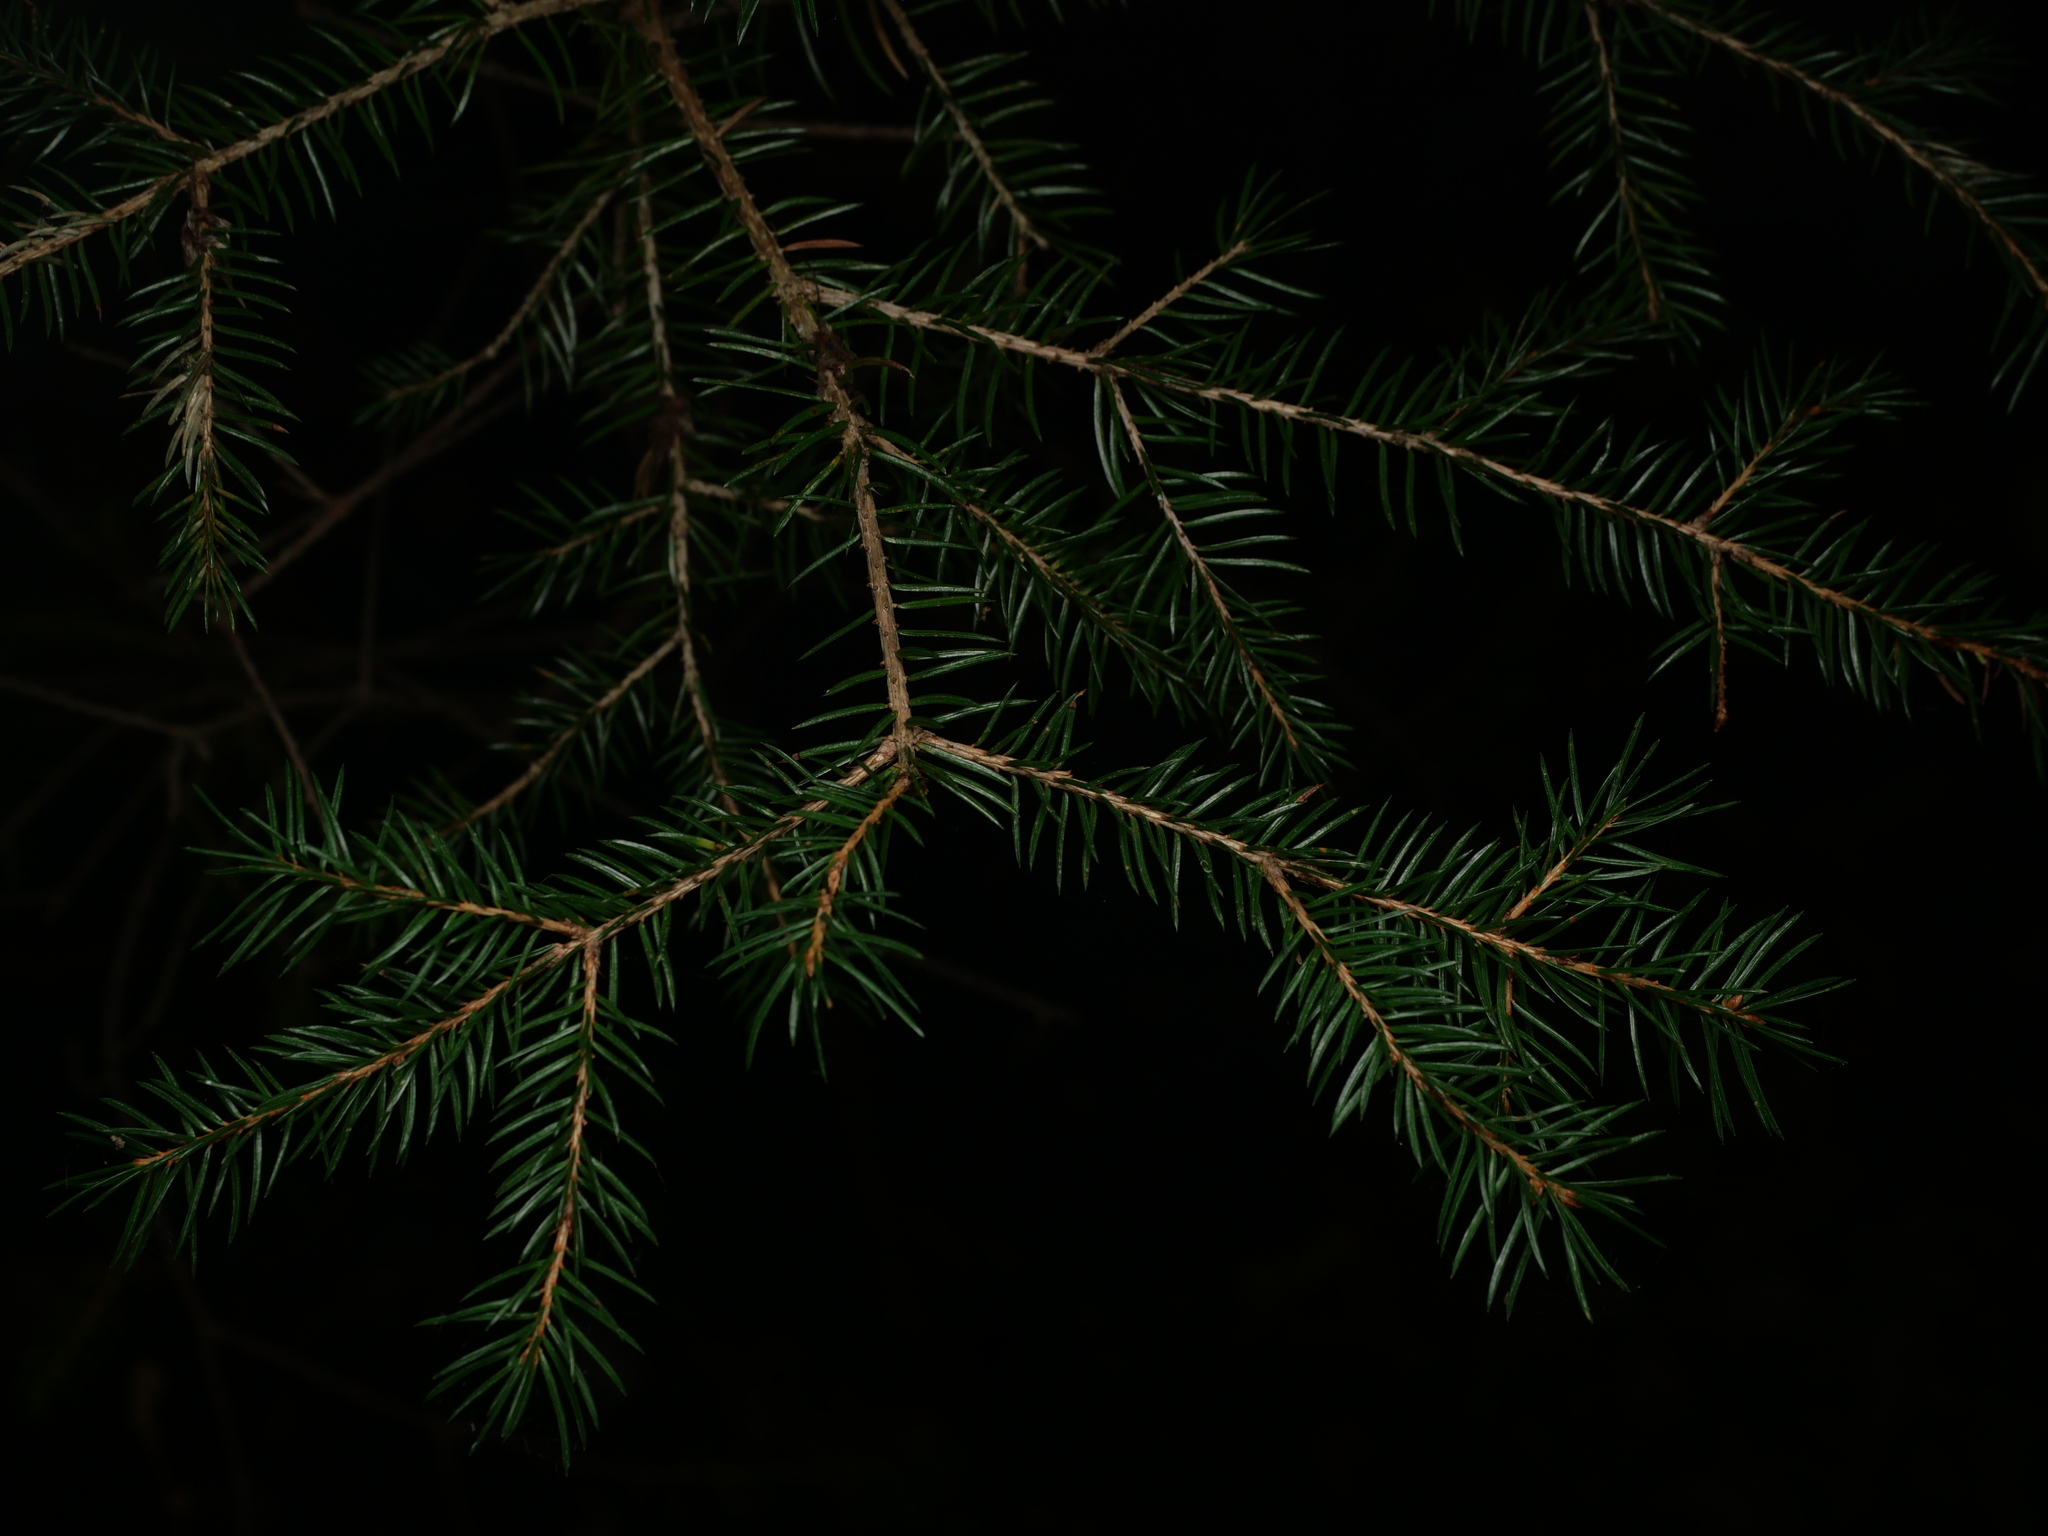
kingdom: Plantae
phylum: Tracheophyta
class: Pinopsida
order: Pinales
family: Pinaceae
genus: Picea
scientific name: Picea abies
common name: Norway spruce
